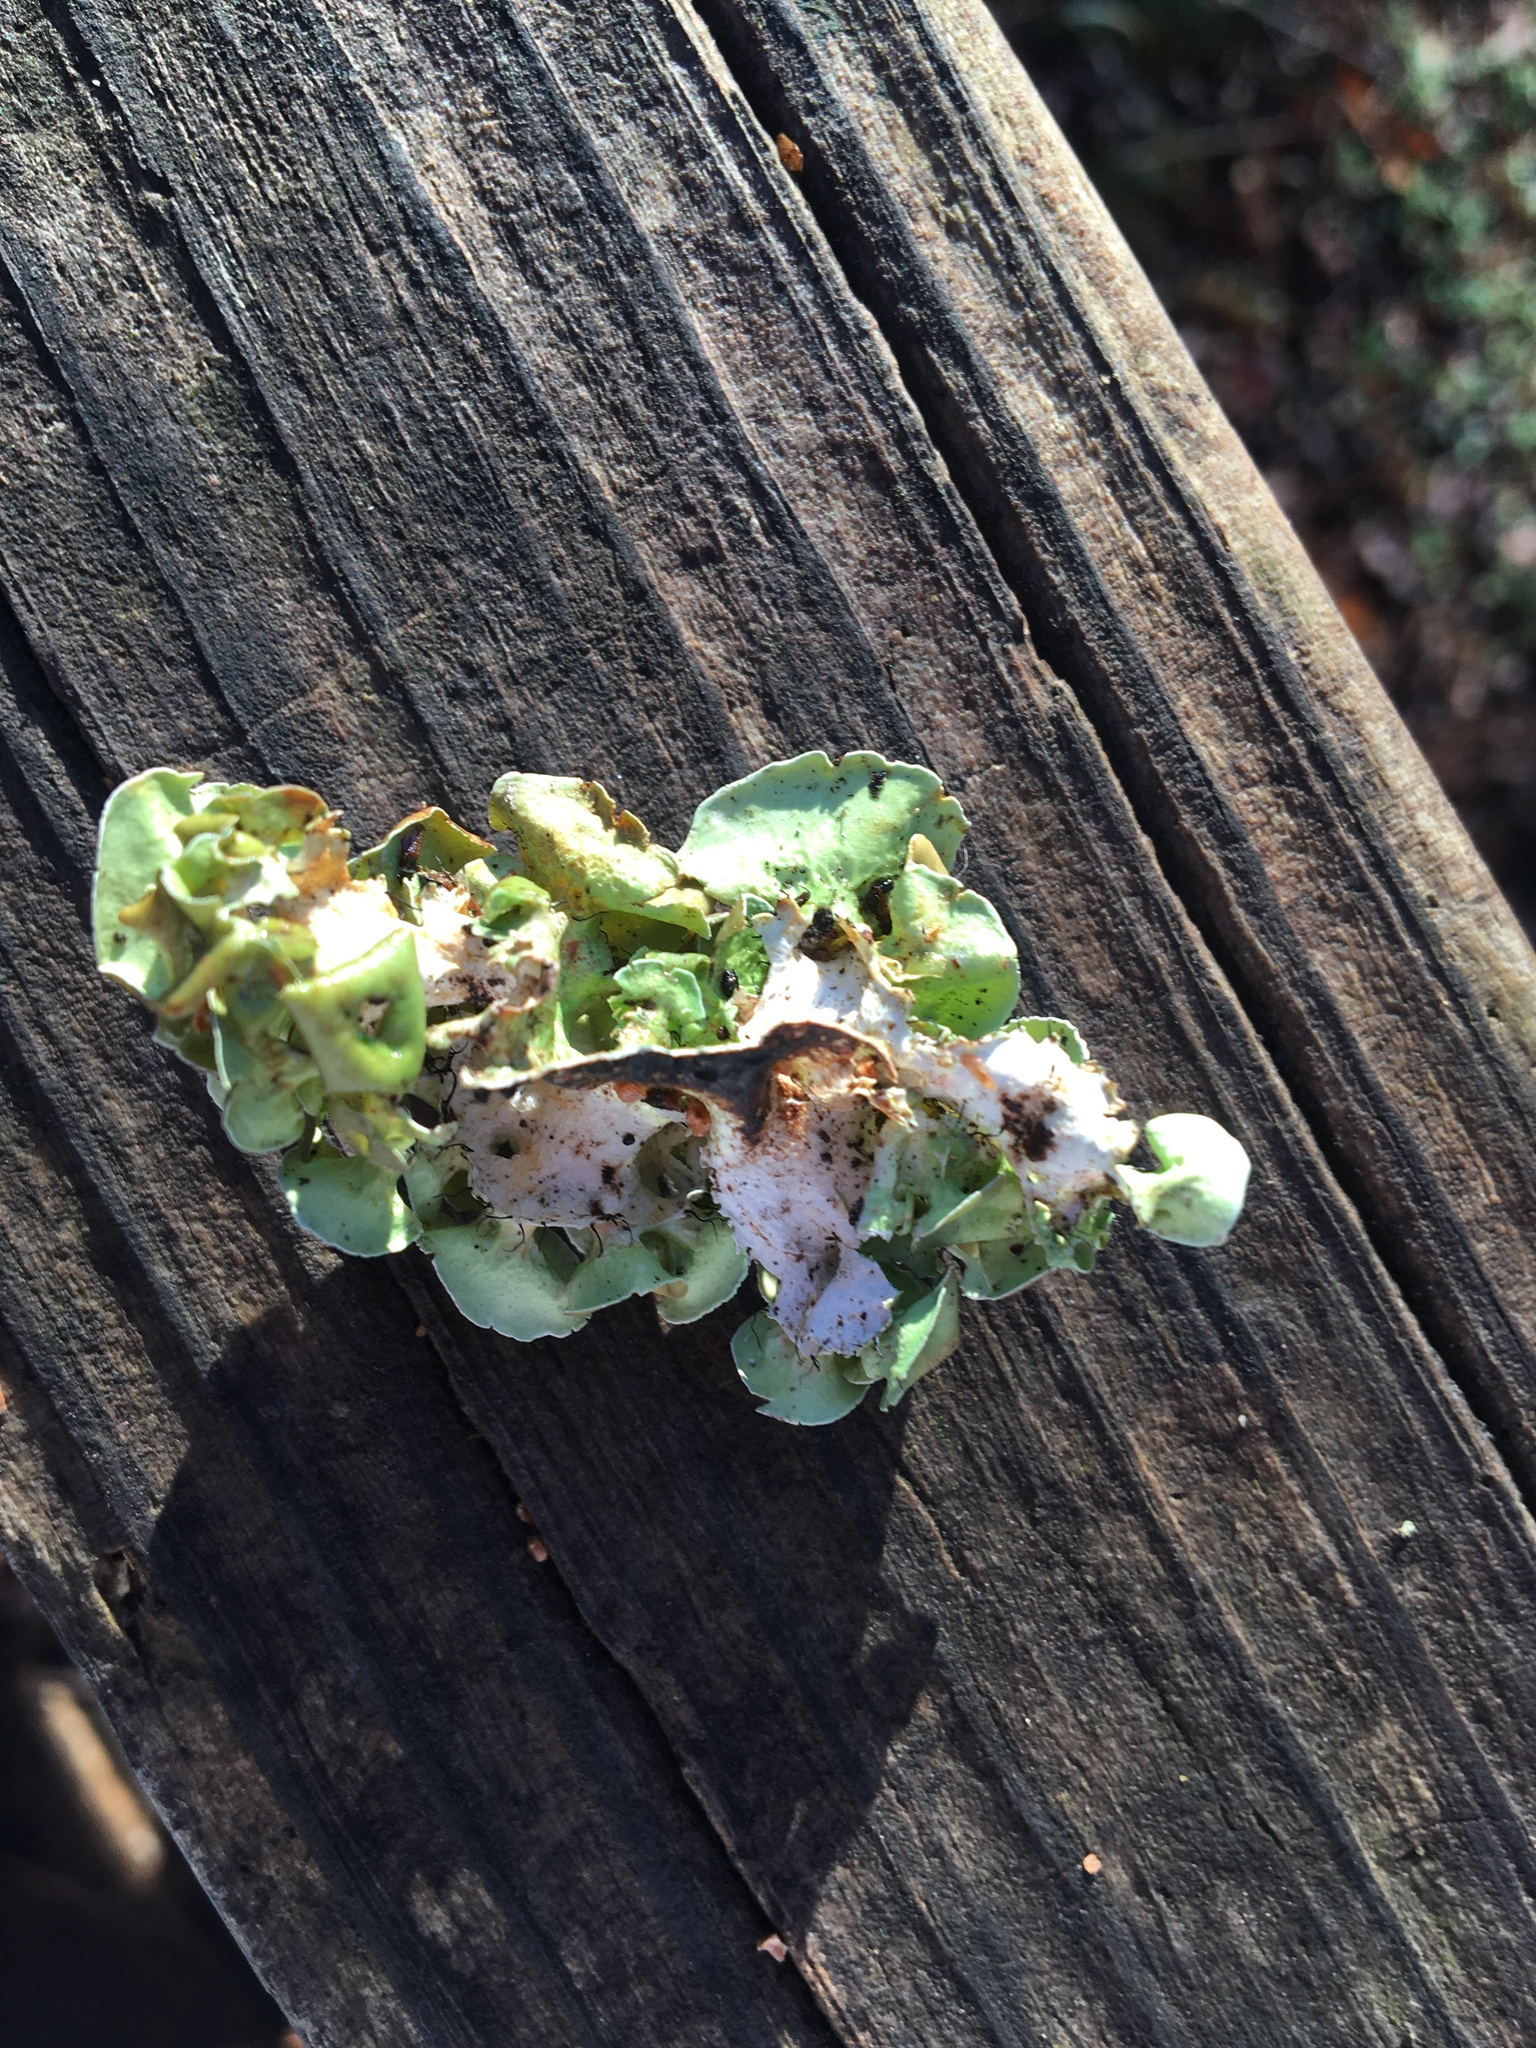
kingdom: Fungi
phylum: Ascomycota
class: Lecanoromycetes
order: Lecanorales
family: Parmeliaceae
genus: Parmotrema
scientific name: Parmotrema perforatum
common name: Perforated ruffle lichen
